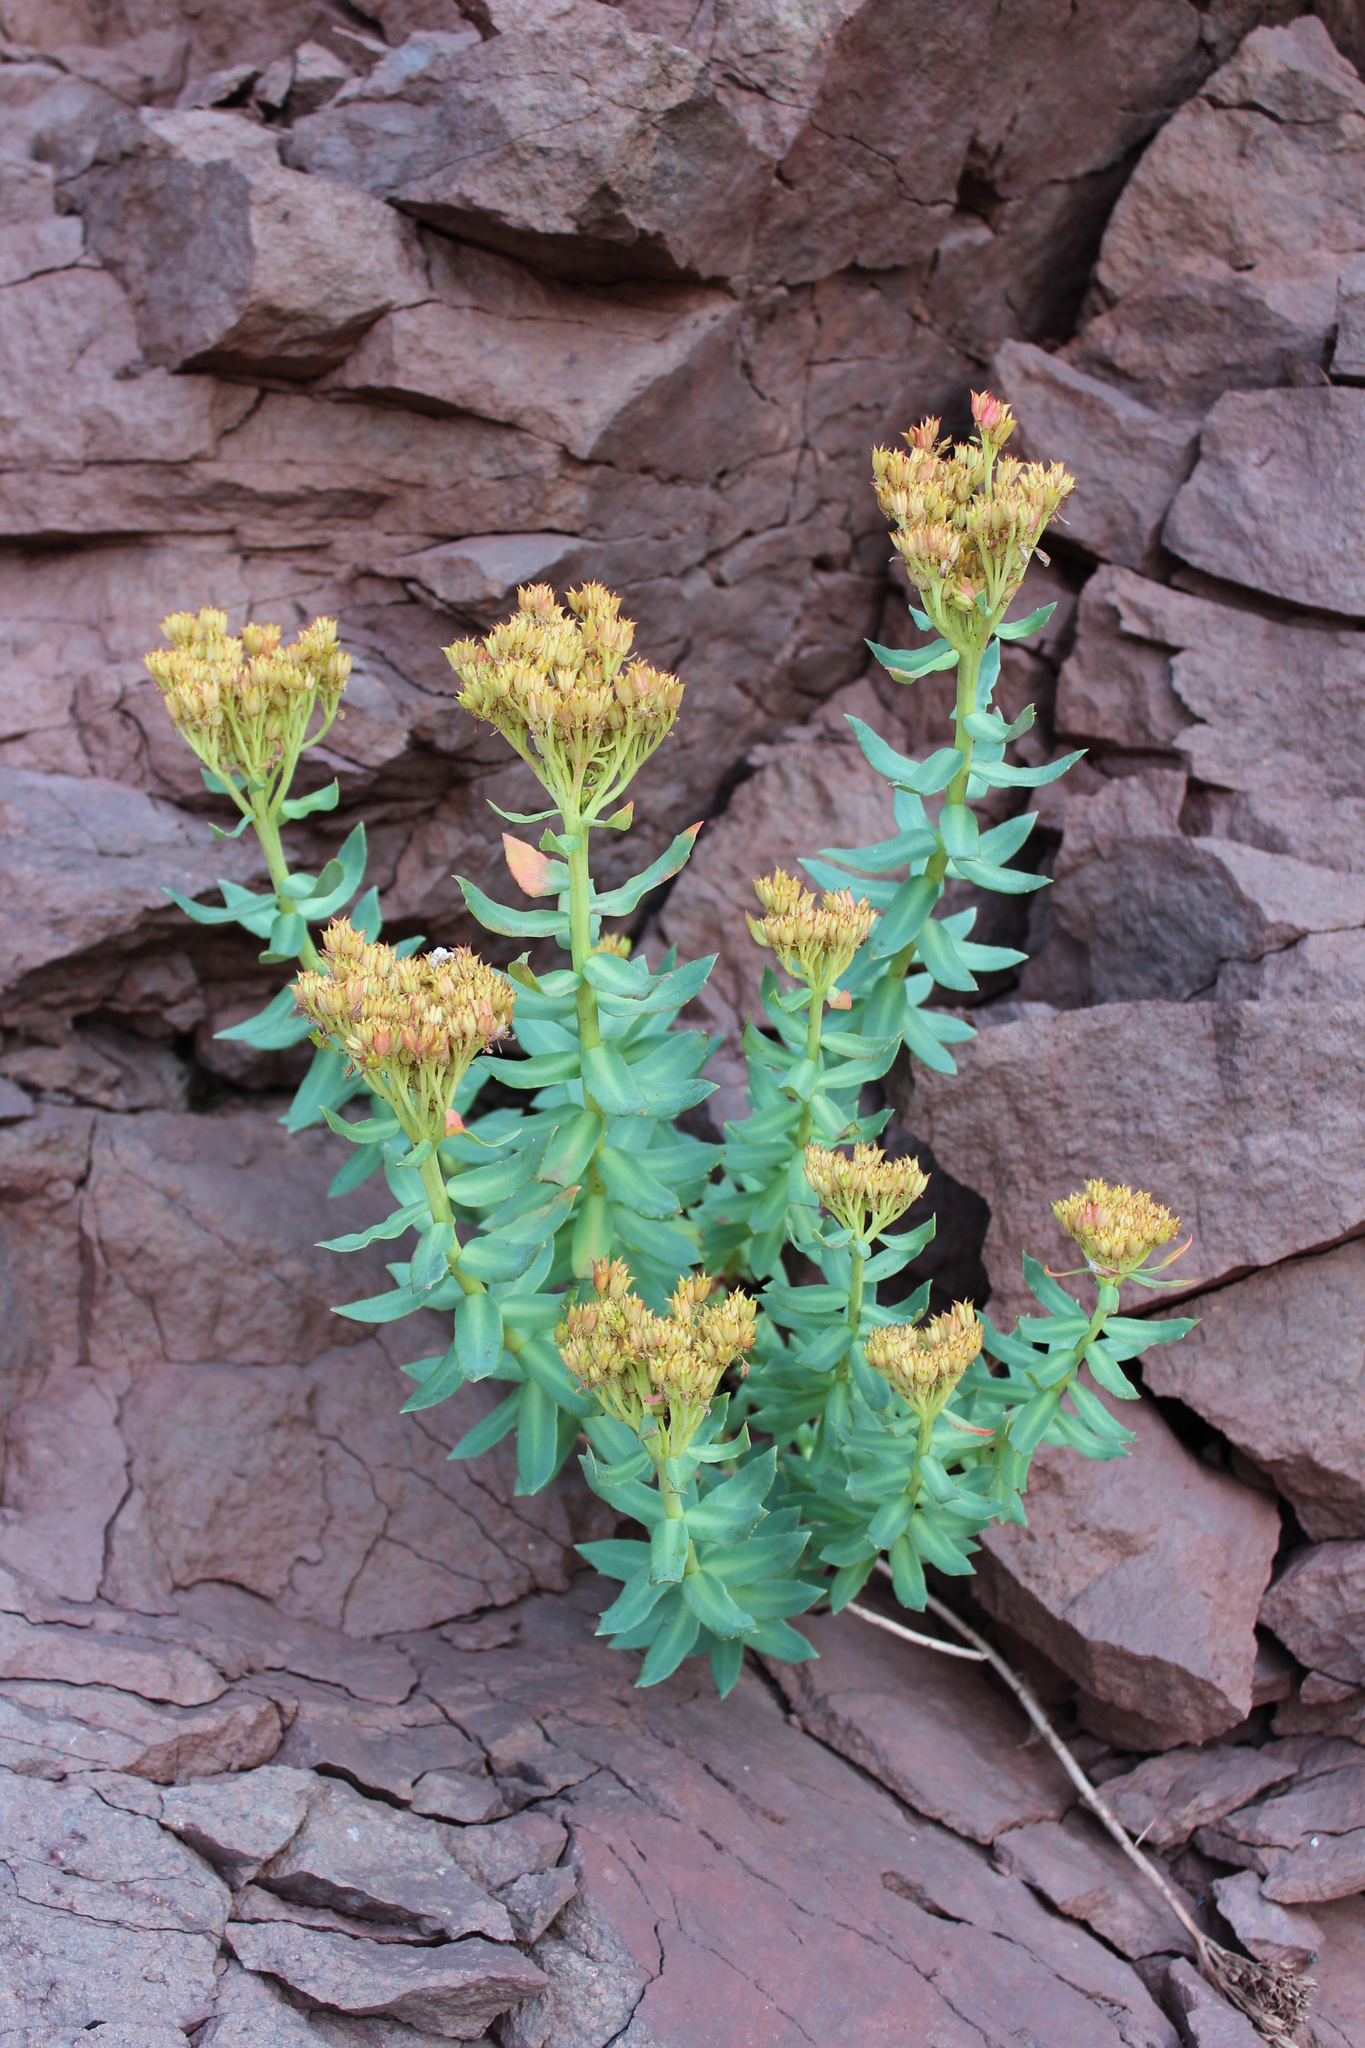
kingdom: Plantae
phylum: Tracheophyta
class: Magnoliopsida
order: Saxifragales
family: Crassulaceae
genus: Rhodiola
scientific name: Rhodiola rosea
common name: Roseroot
